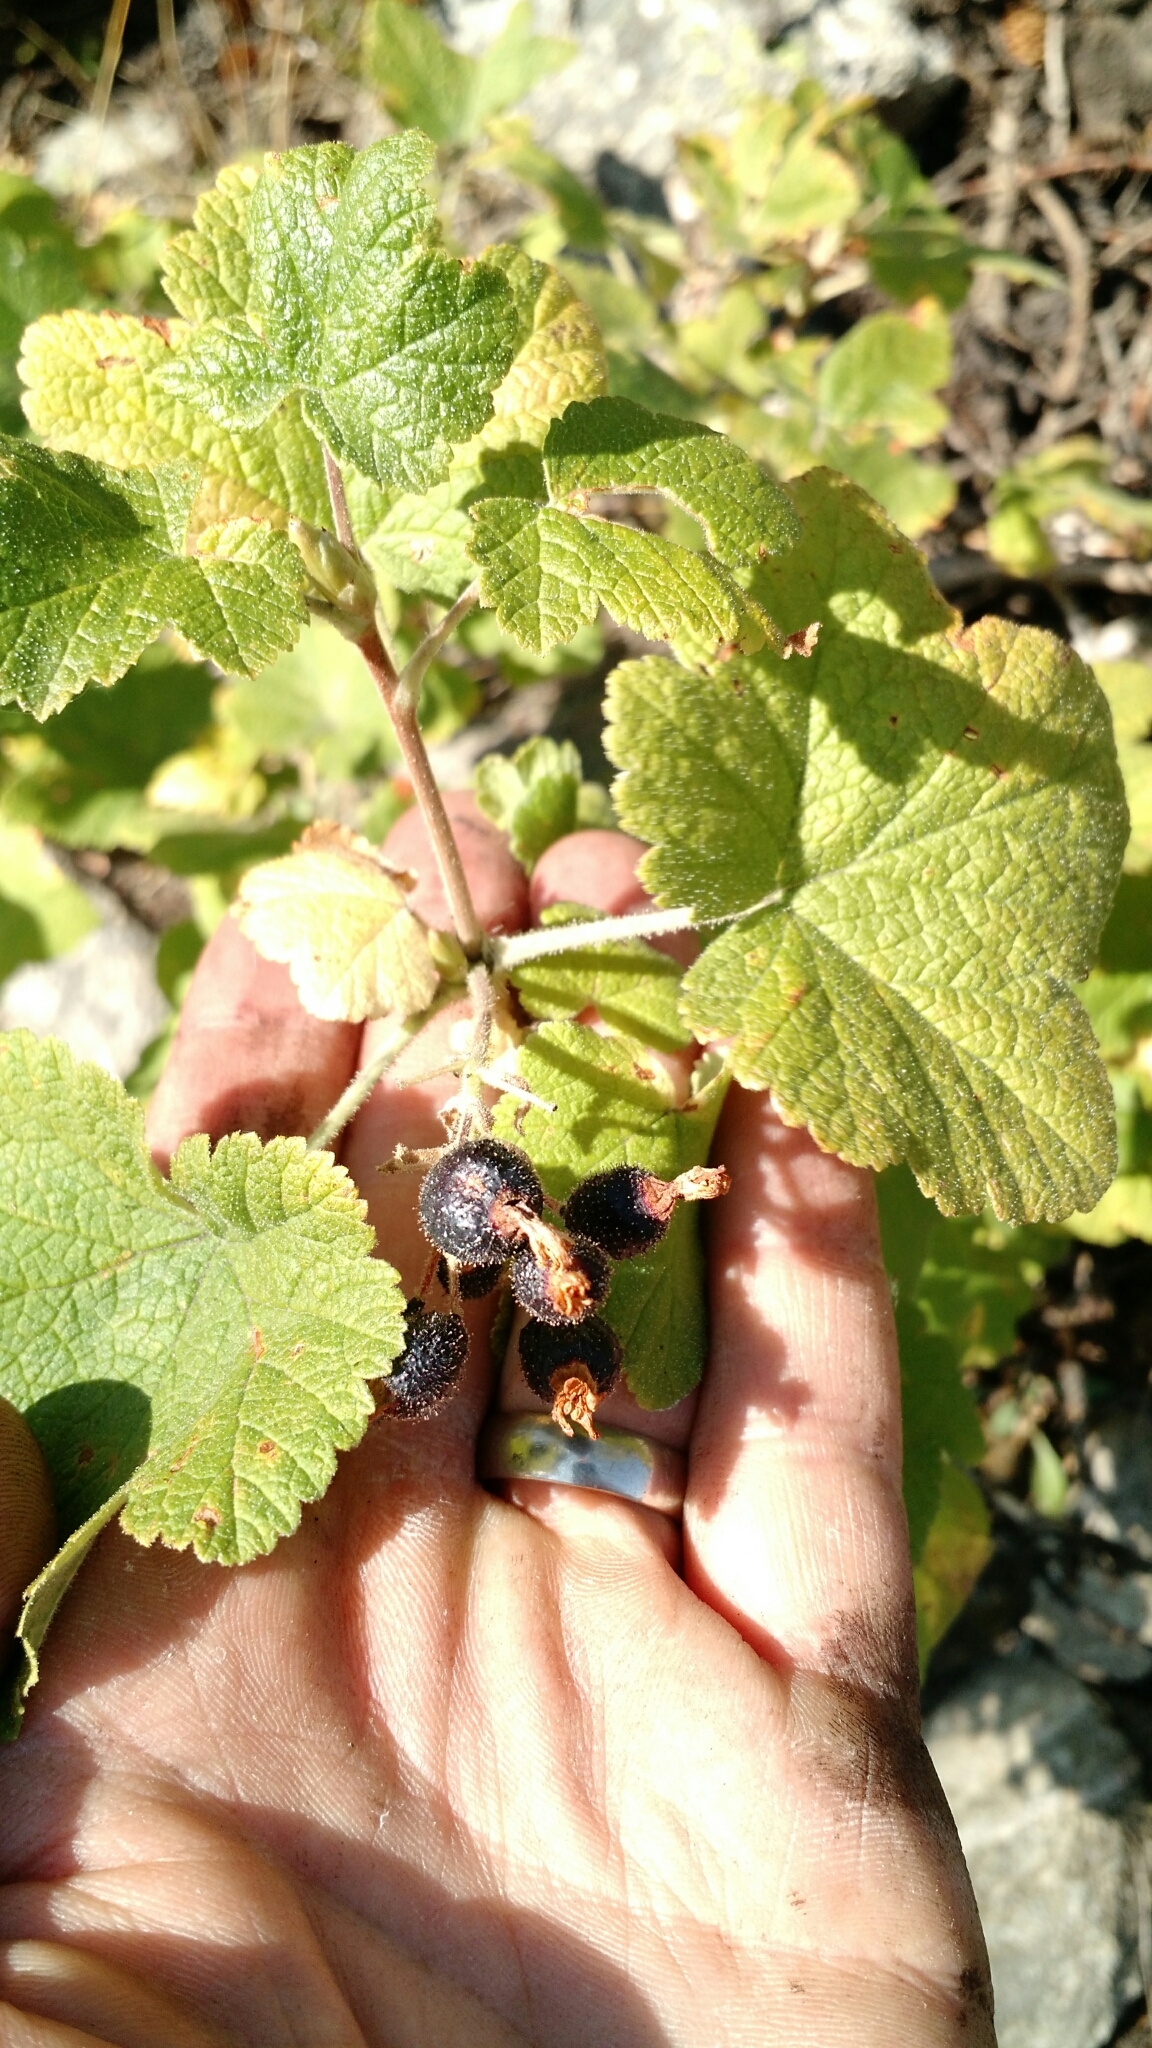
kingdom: Plantae
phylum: Tracheophyta
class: Magnoliopsida
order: Saxifragales
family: Grossulariaceae
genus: Ribes
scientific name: Ribes viscosissimum
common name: Sticky currant
